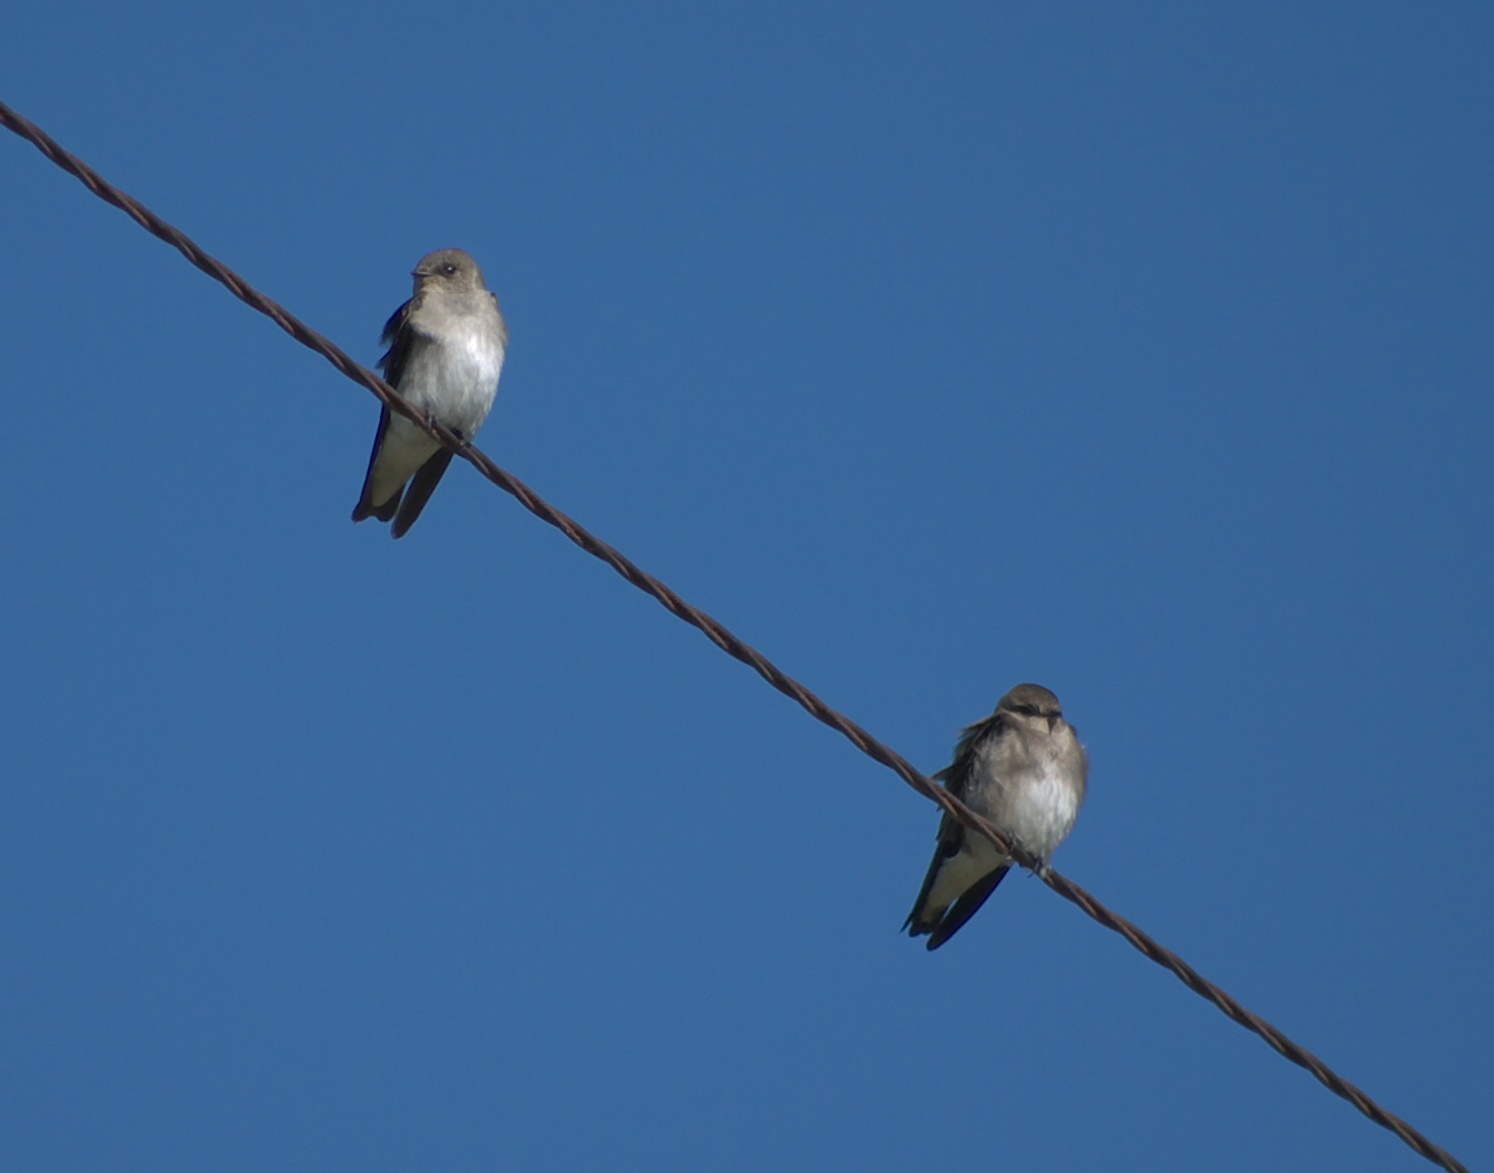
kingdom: Animalia
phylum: Chordata
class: Aves
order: Passeriformes
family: Hirundinidae
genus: Stelgidopteryx
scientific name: Stelgidopteryx serripennis
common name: Northern rough-winged swallow
